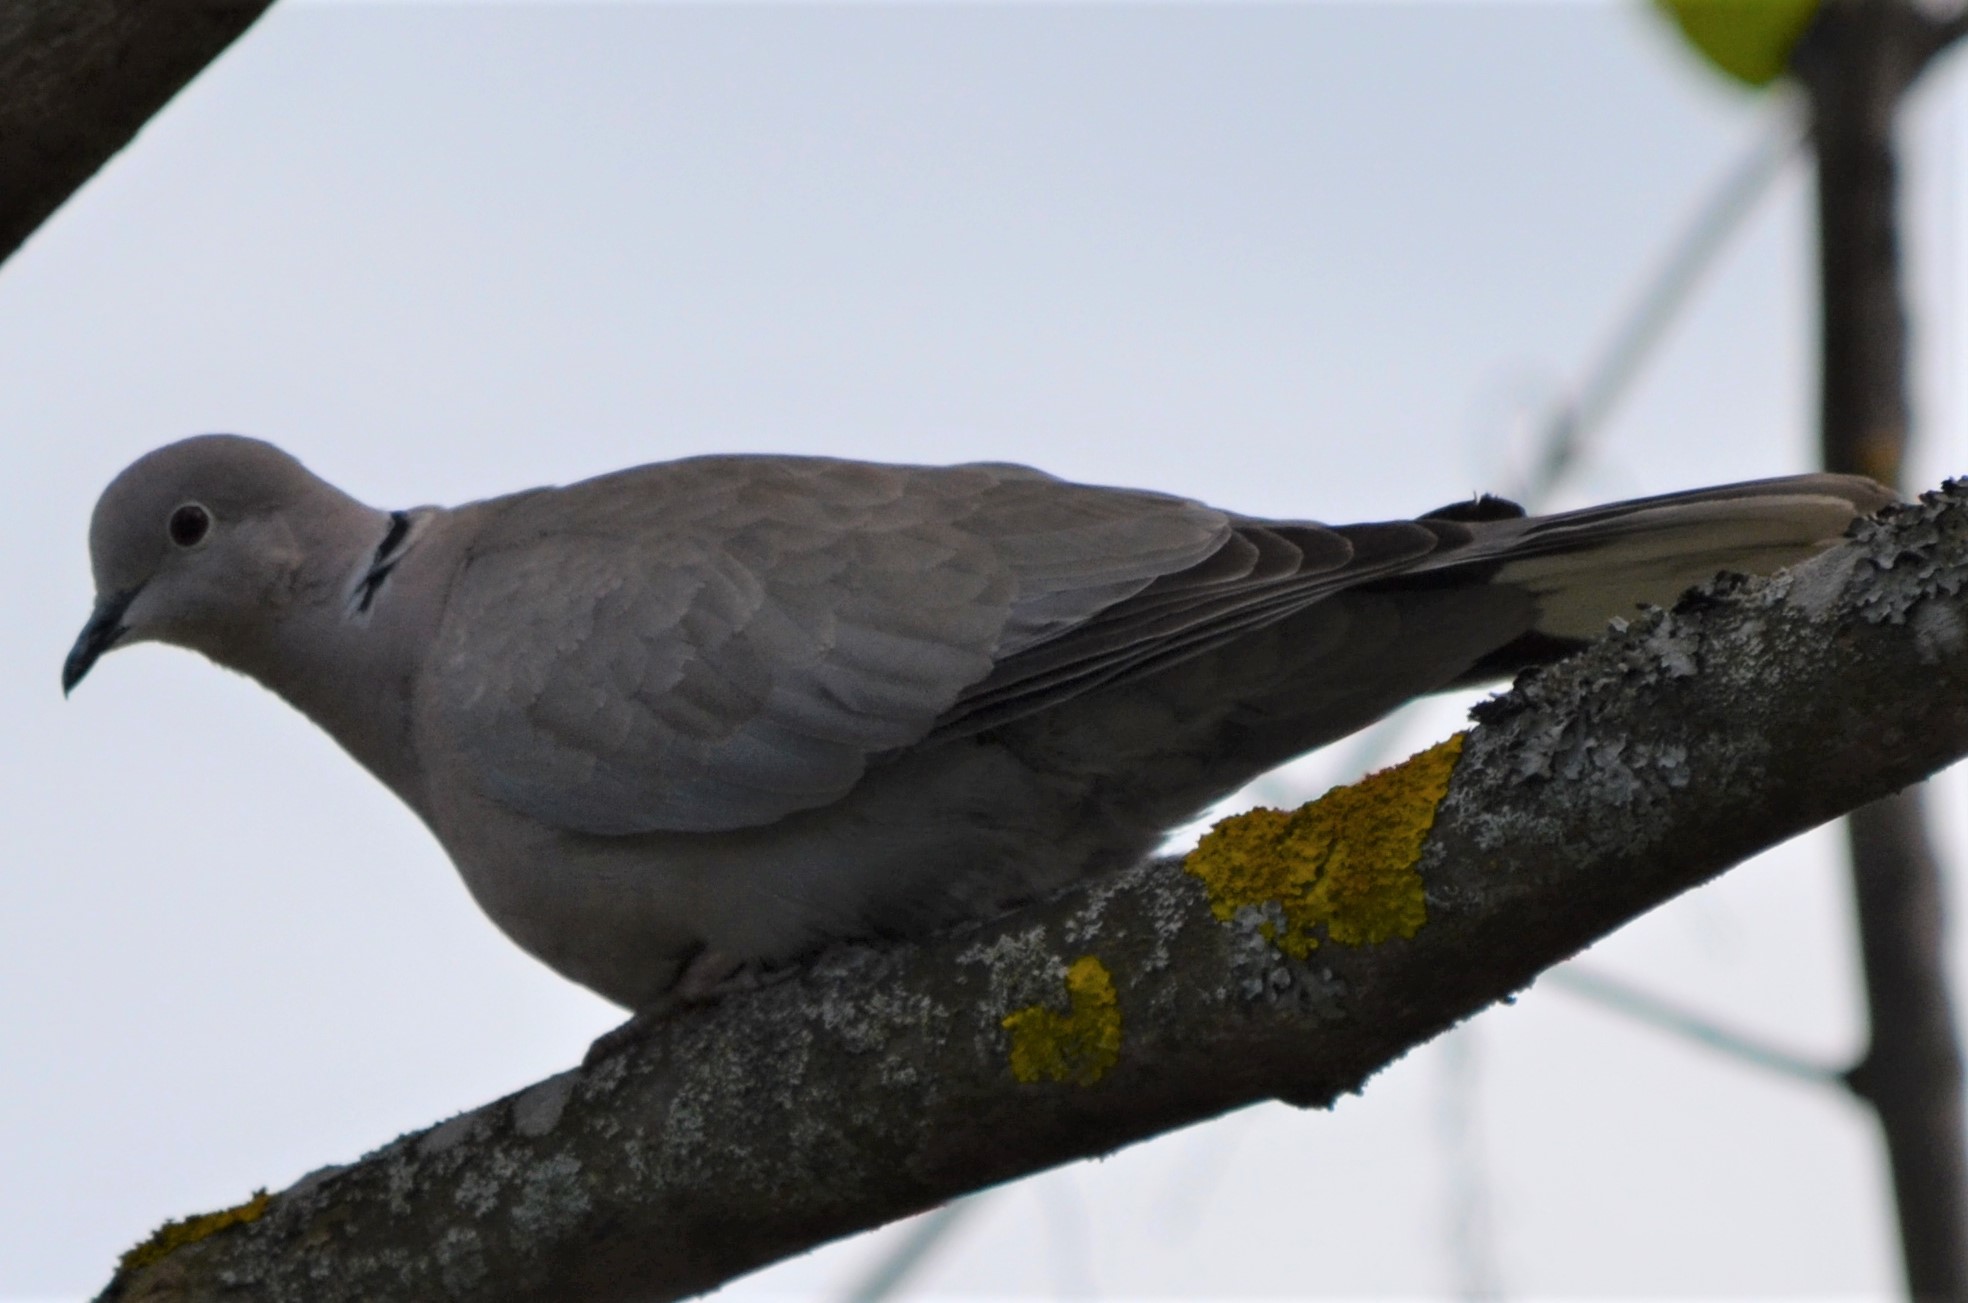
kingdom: Animalia
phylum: Chordata
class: Aves
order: Columbiformes
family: Columbidae
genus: Streptopelia
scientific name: Streptopelia decaocto
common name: Eurasian collared dove
